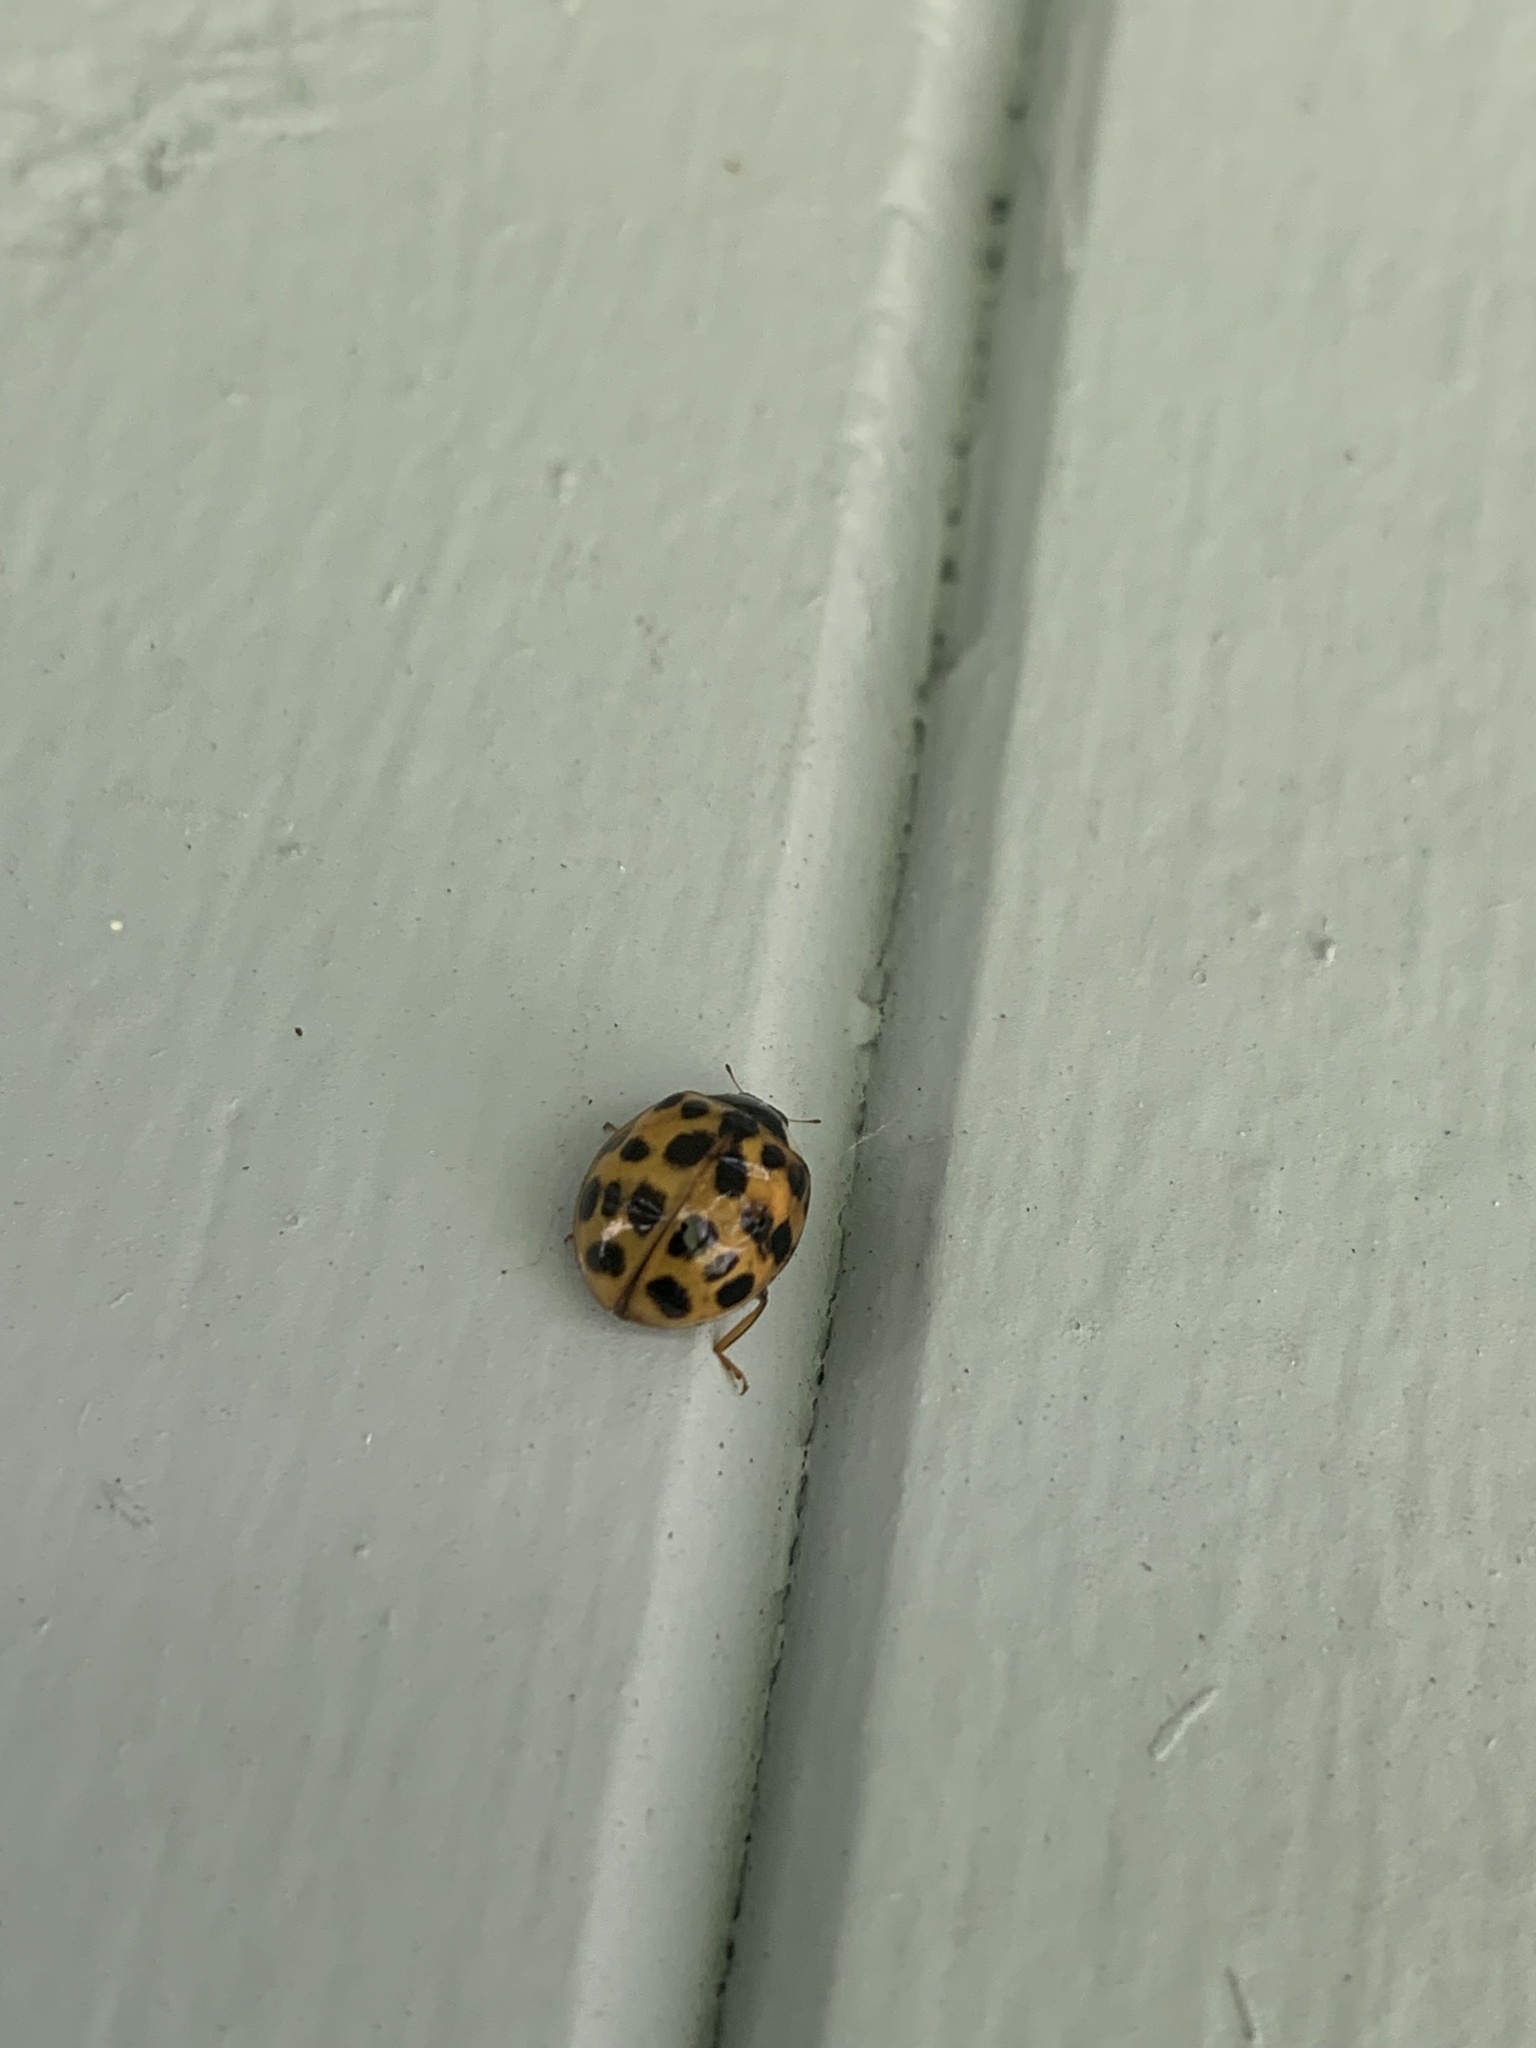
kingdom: Animalia
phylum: Arthropoda
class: Insecta
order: Coleoptera
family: Coccinellidae
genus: Harmonia
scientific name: Harmonia axyridis
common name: Harlequin ladybird
